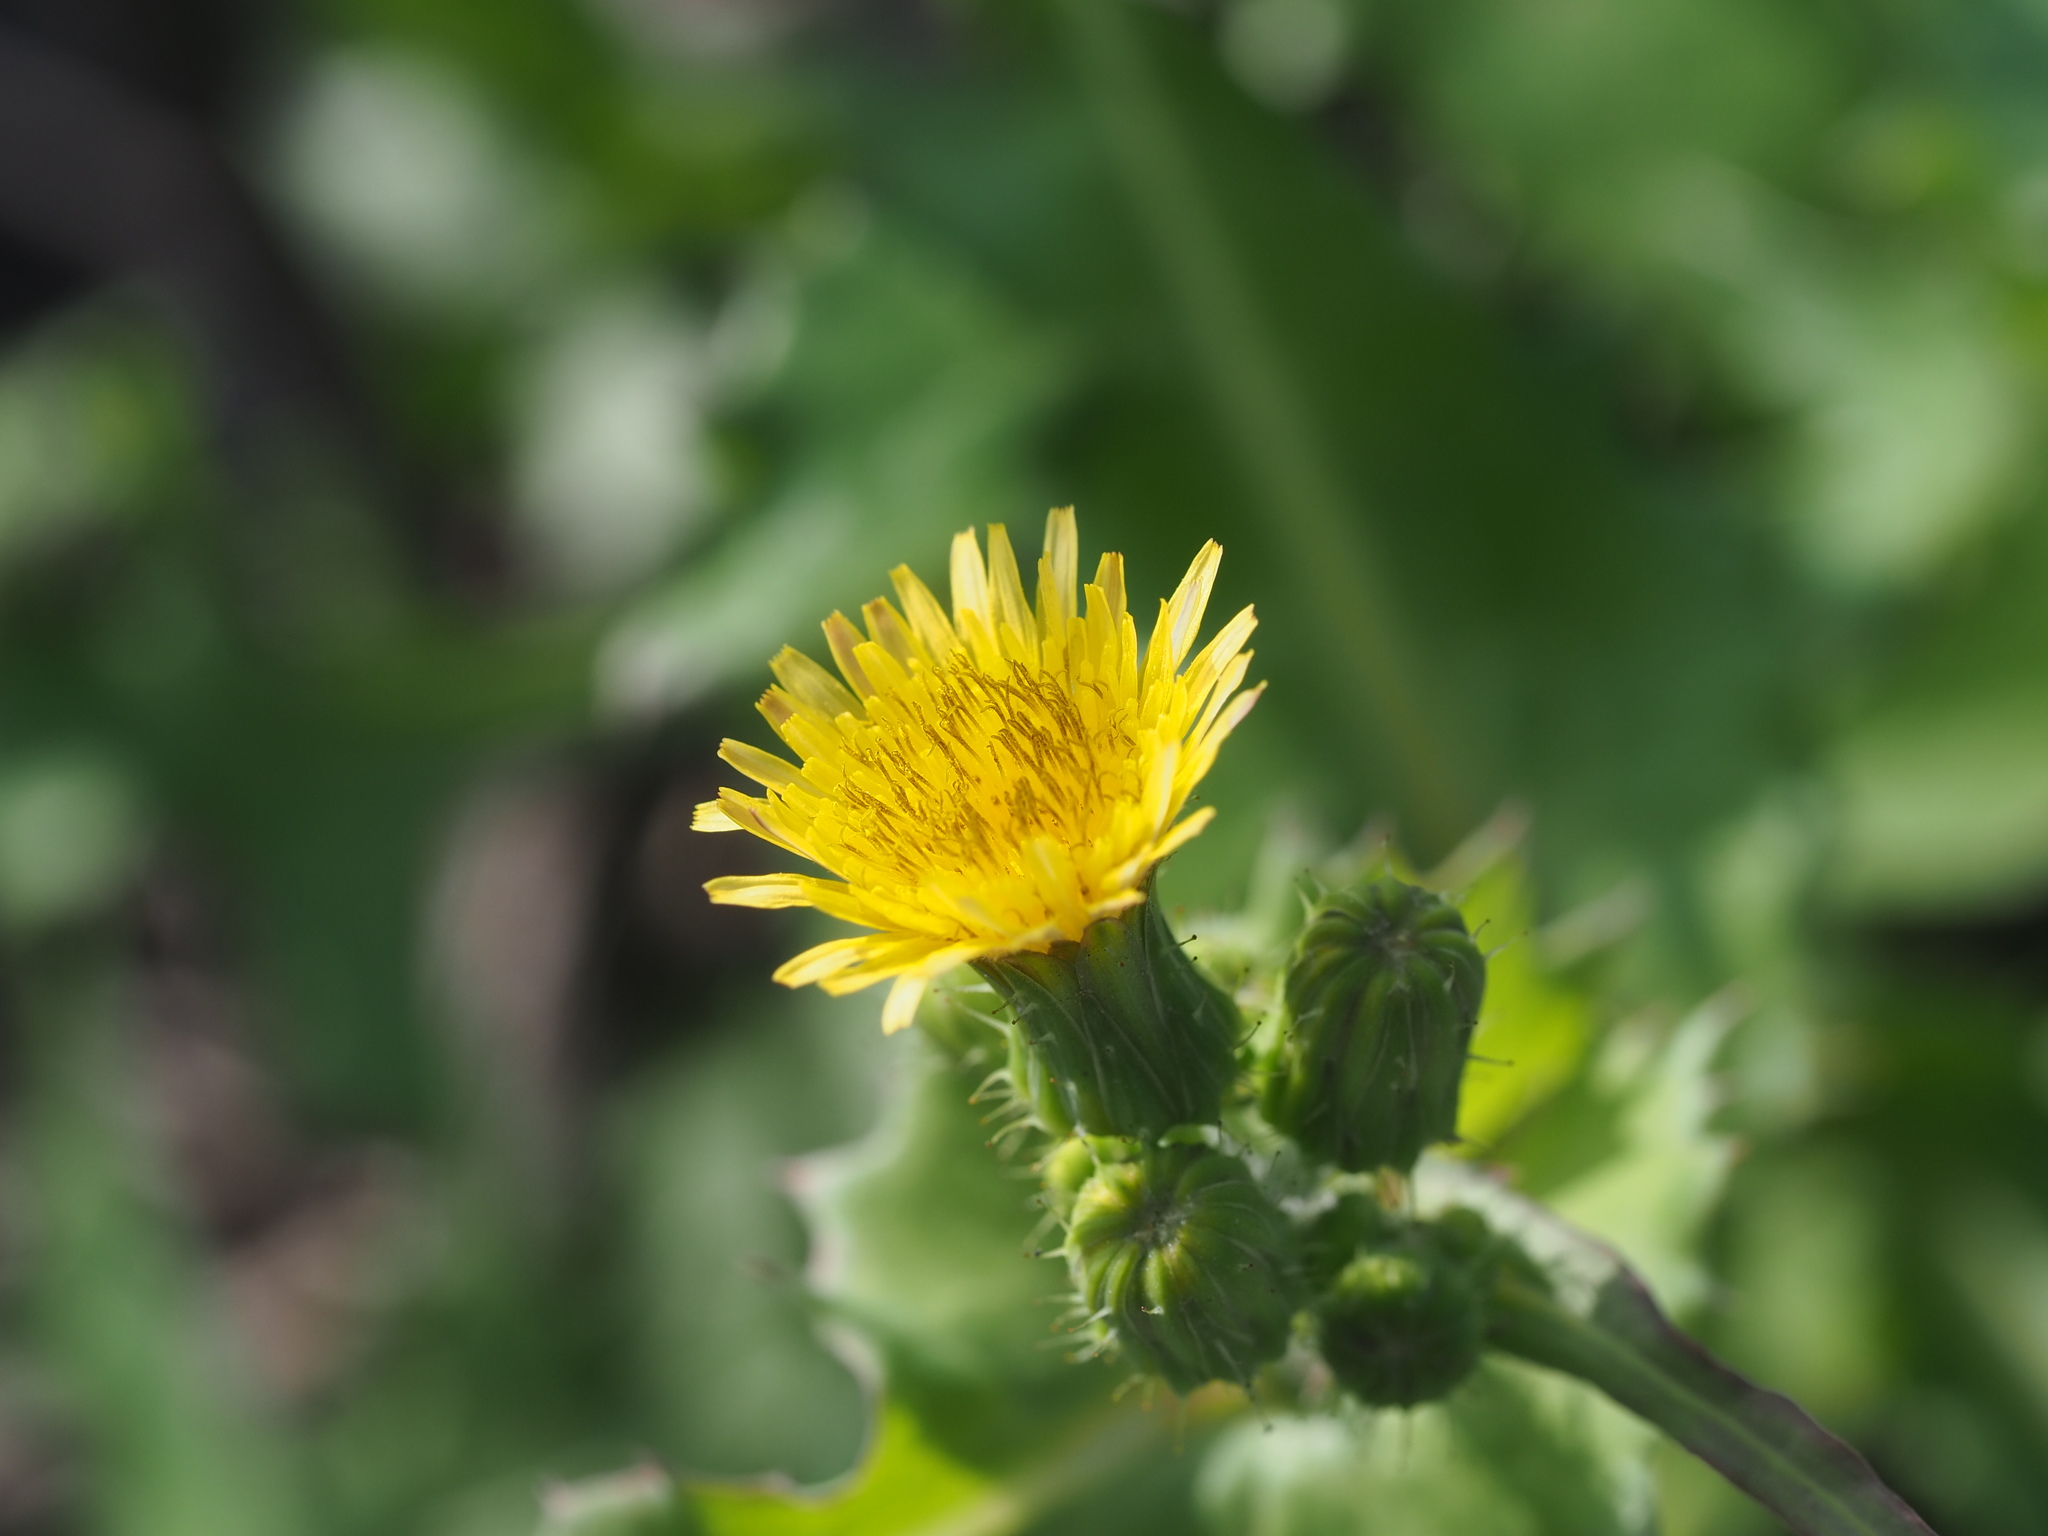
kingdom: Plantae
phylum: Tracheophyta
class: Magnoliopsida
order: Asterales
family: Asteraceae
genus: Sonchus
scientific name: Sonchus oleraceus
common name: Common sowthistle
